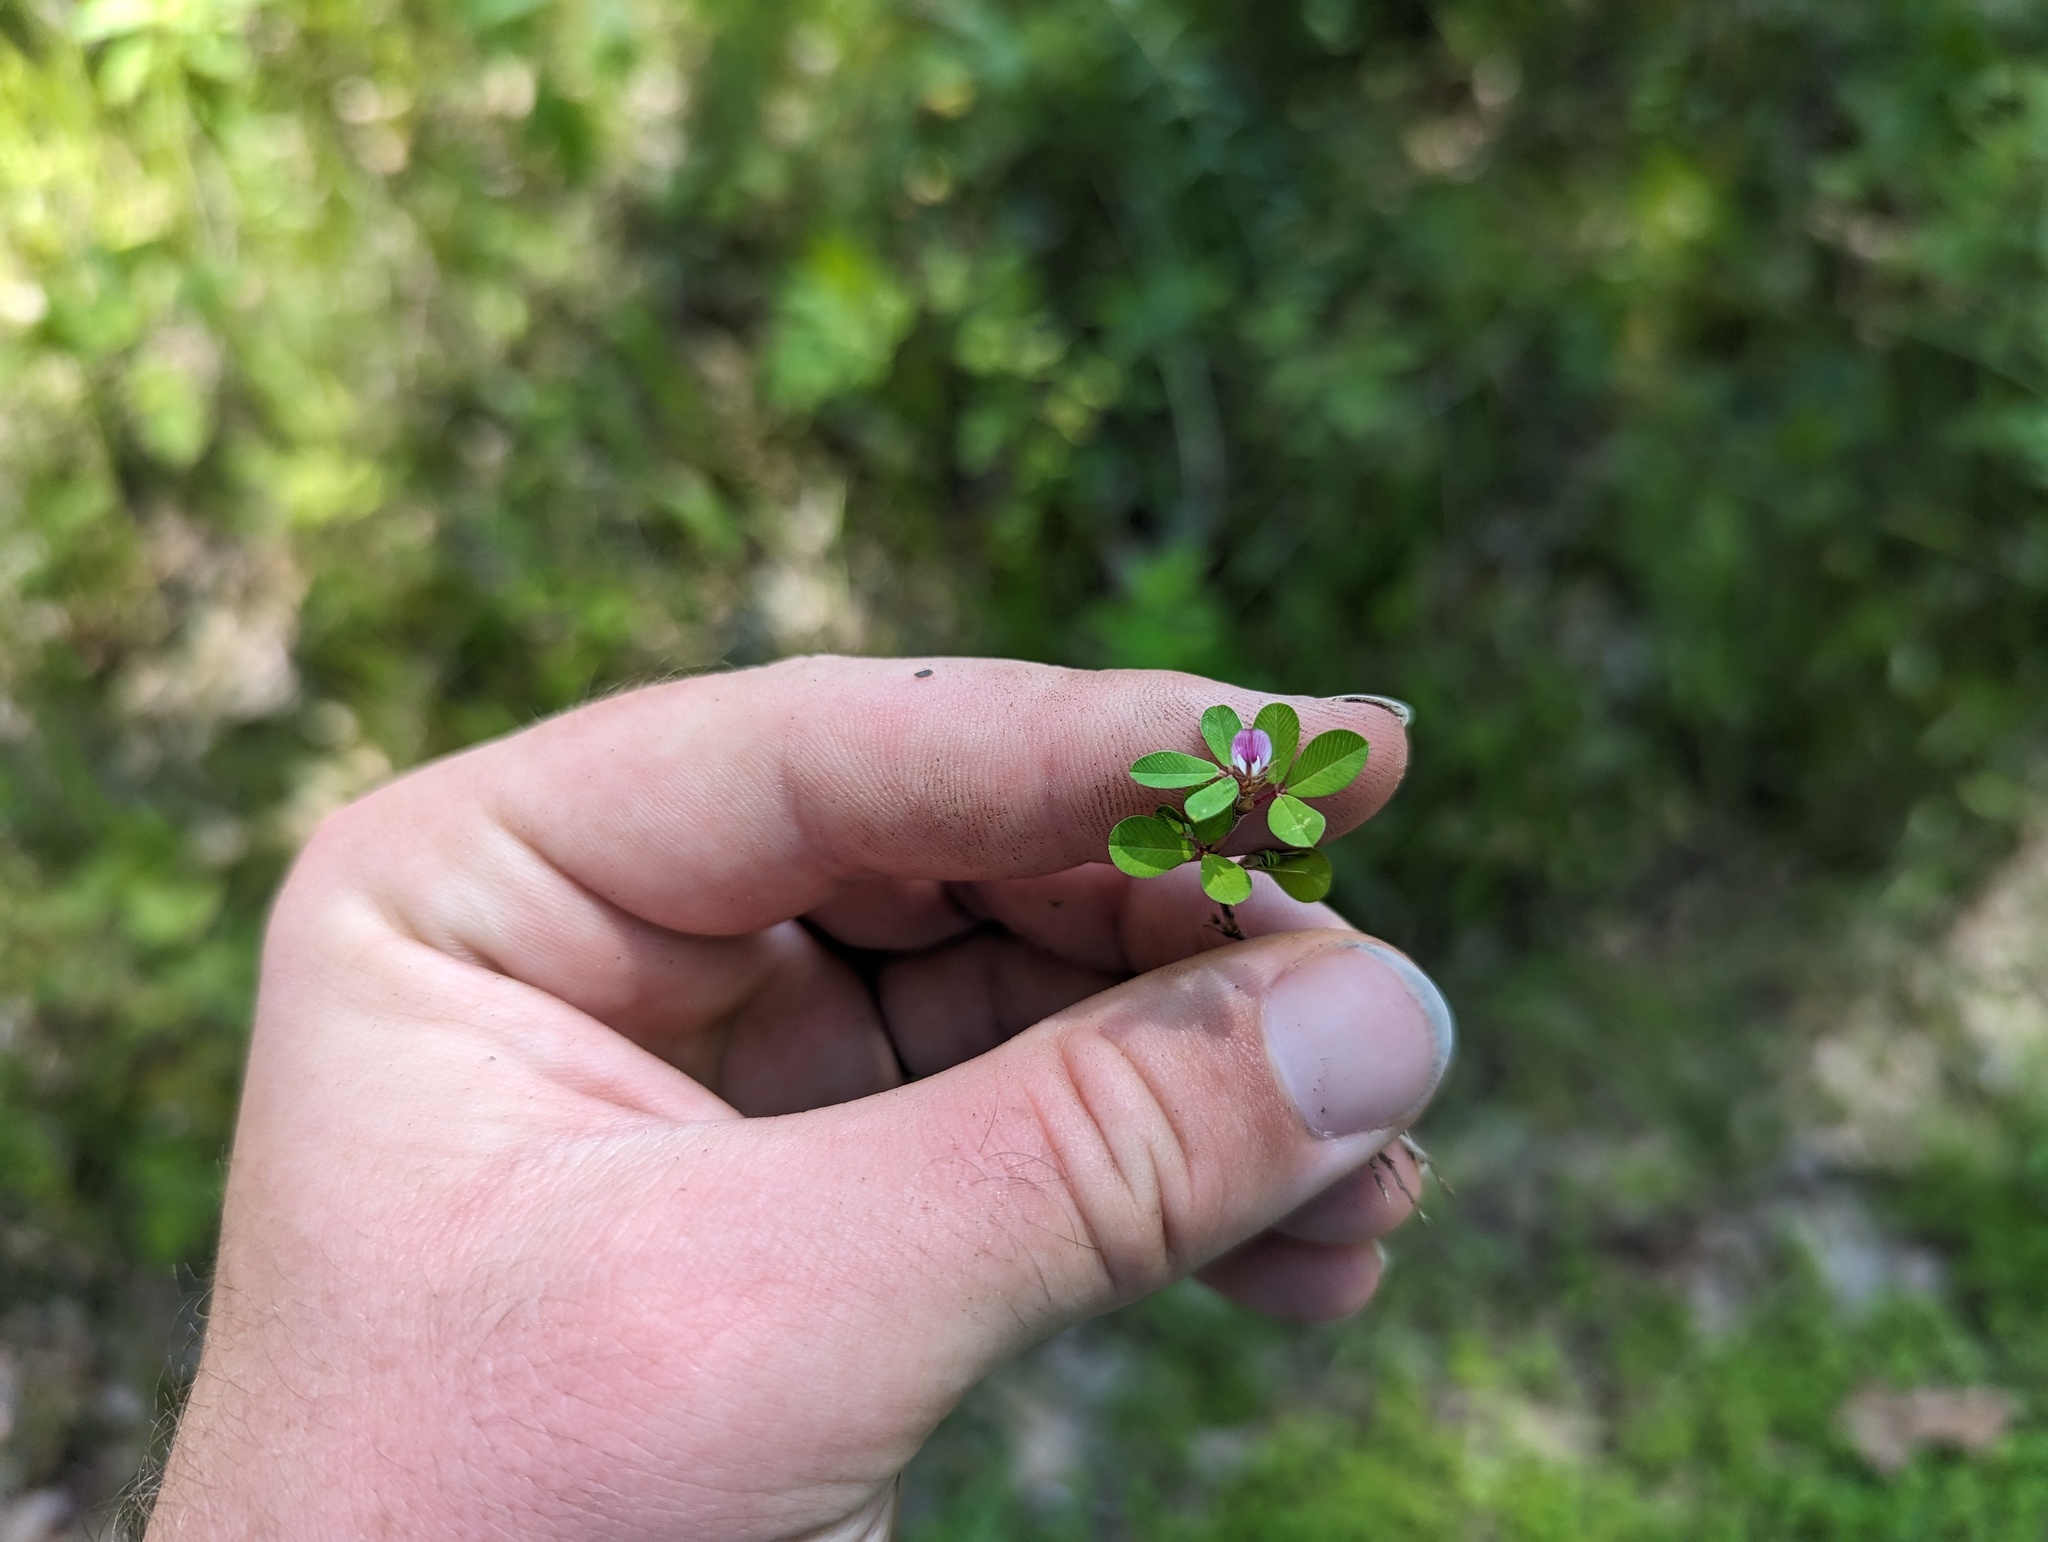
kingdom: Plantae
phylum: Tracheophyta
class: Magnoliopsida
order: Fabales
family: Fabaceae
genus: Kummerowia
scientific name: Kummerowia striata
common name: Japanese clover
